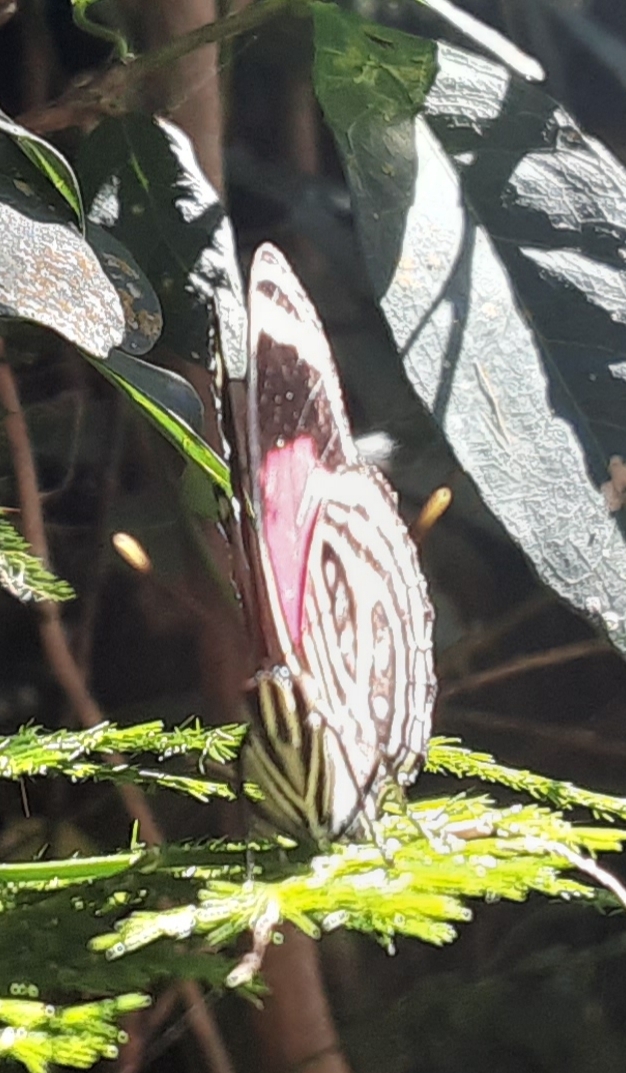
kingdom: Animalia
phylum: Arthropoda
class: Insecta
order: Lepidoptera
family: Nymphalidae
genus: Catagramma
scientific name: Catagramma pygas
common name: Godart's numberwing
